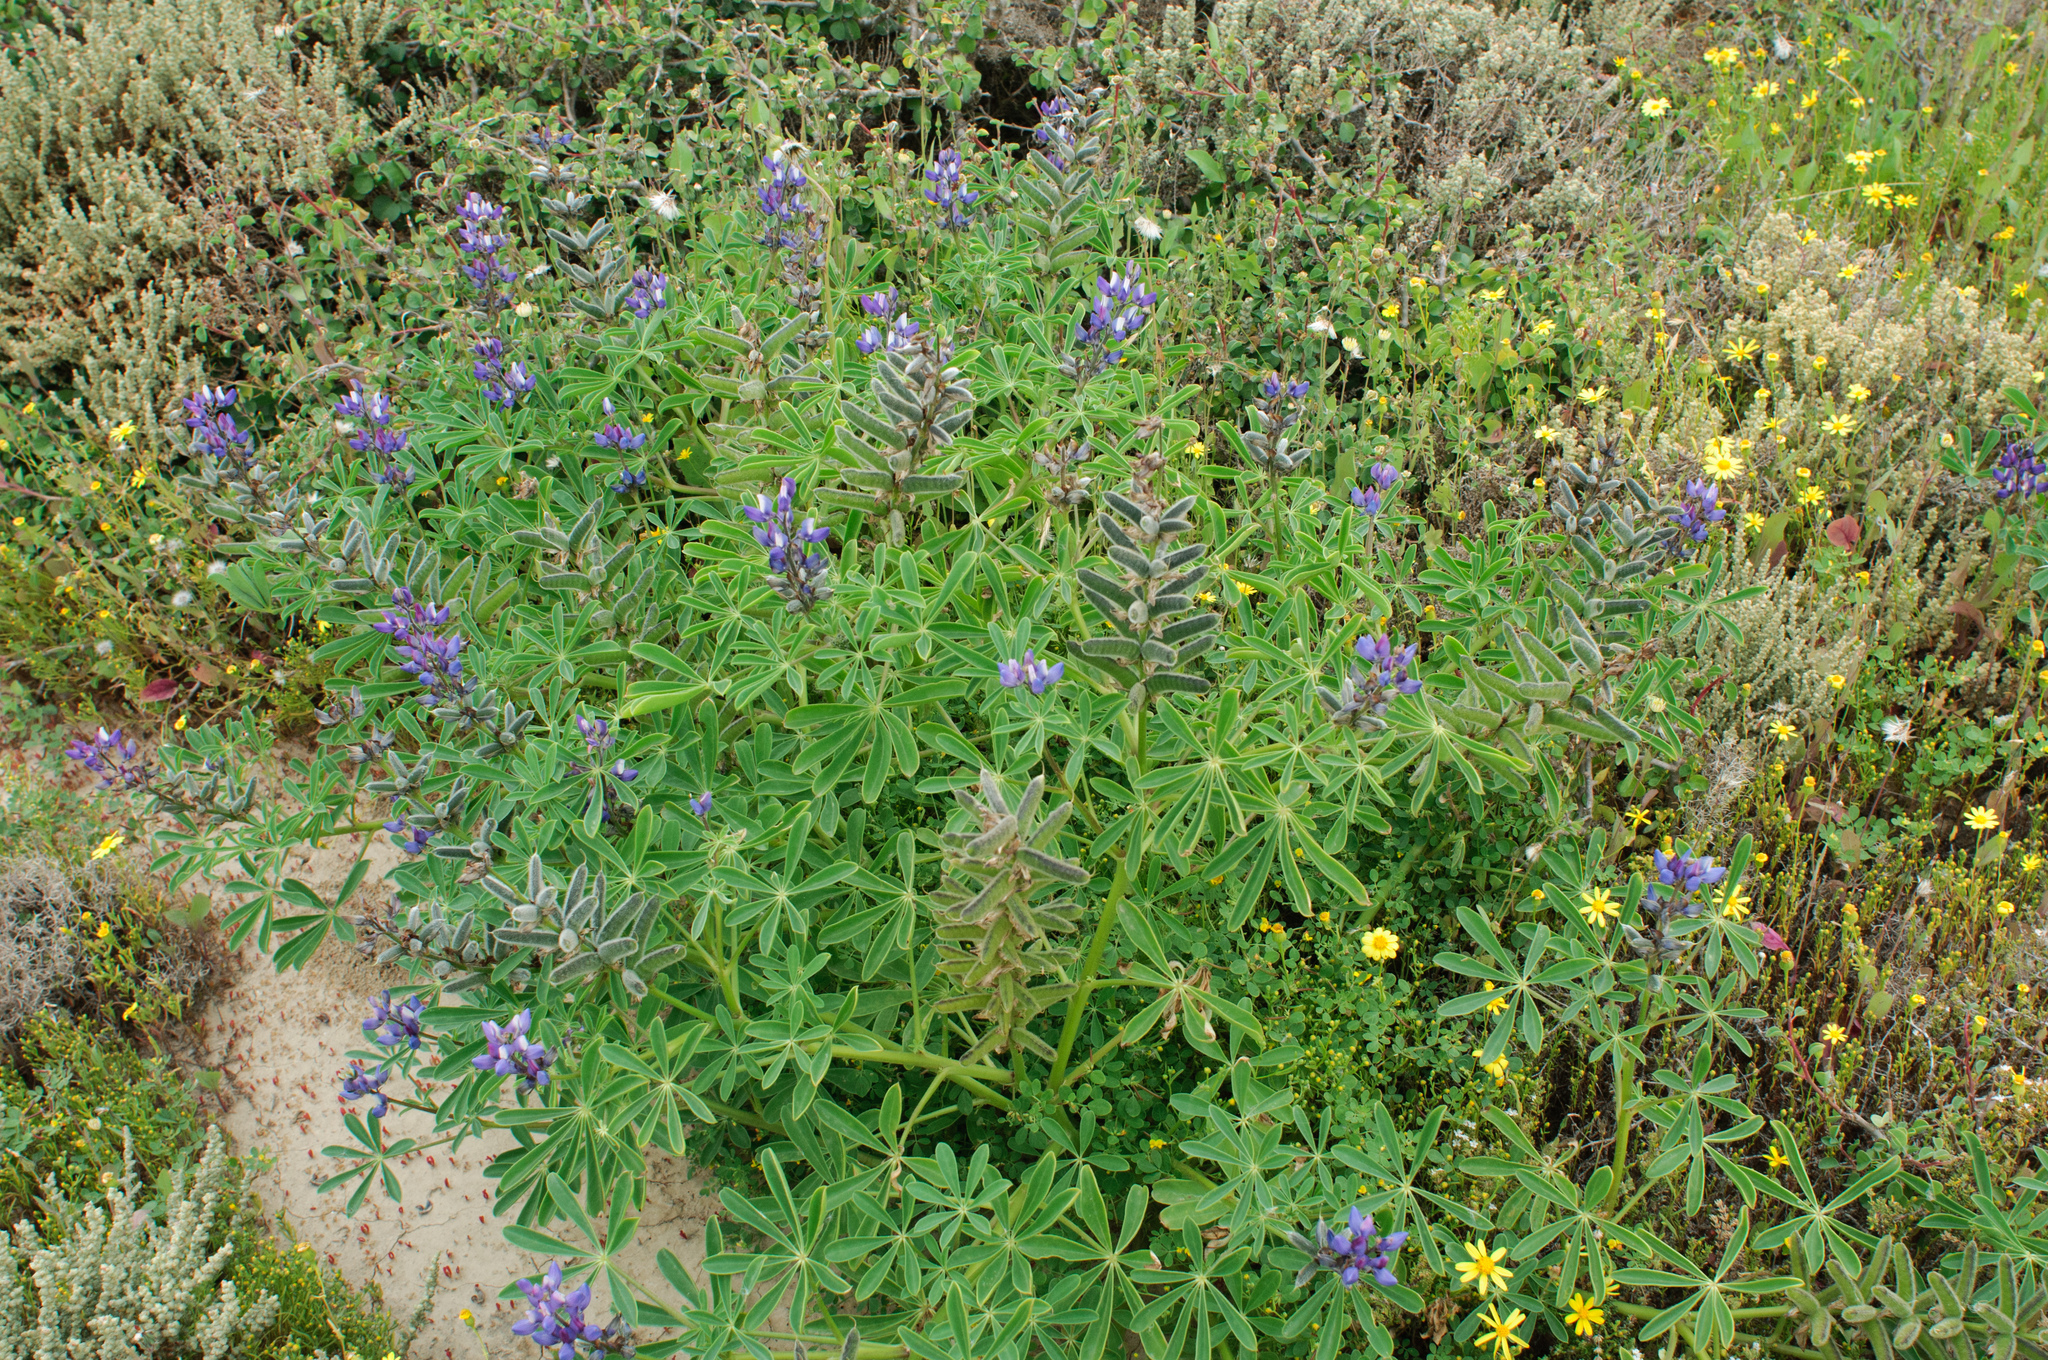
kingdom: Plantae
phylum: Tracheophyta
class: Magnoliopsida
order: Fabales
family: Fabaceae
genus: Lupinus
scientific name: Lupinus succulentus
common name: Arroyo lupine
